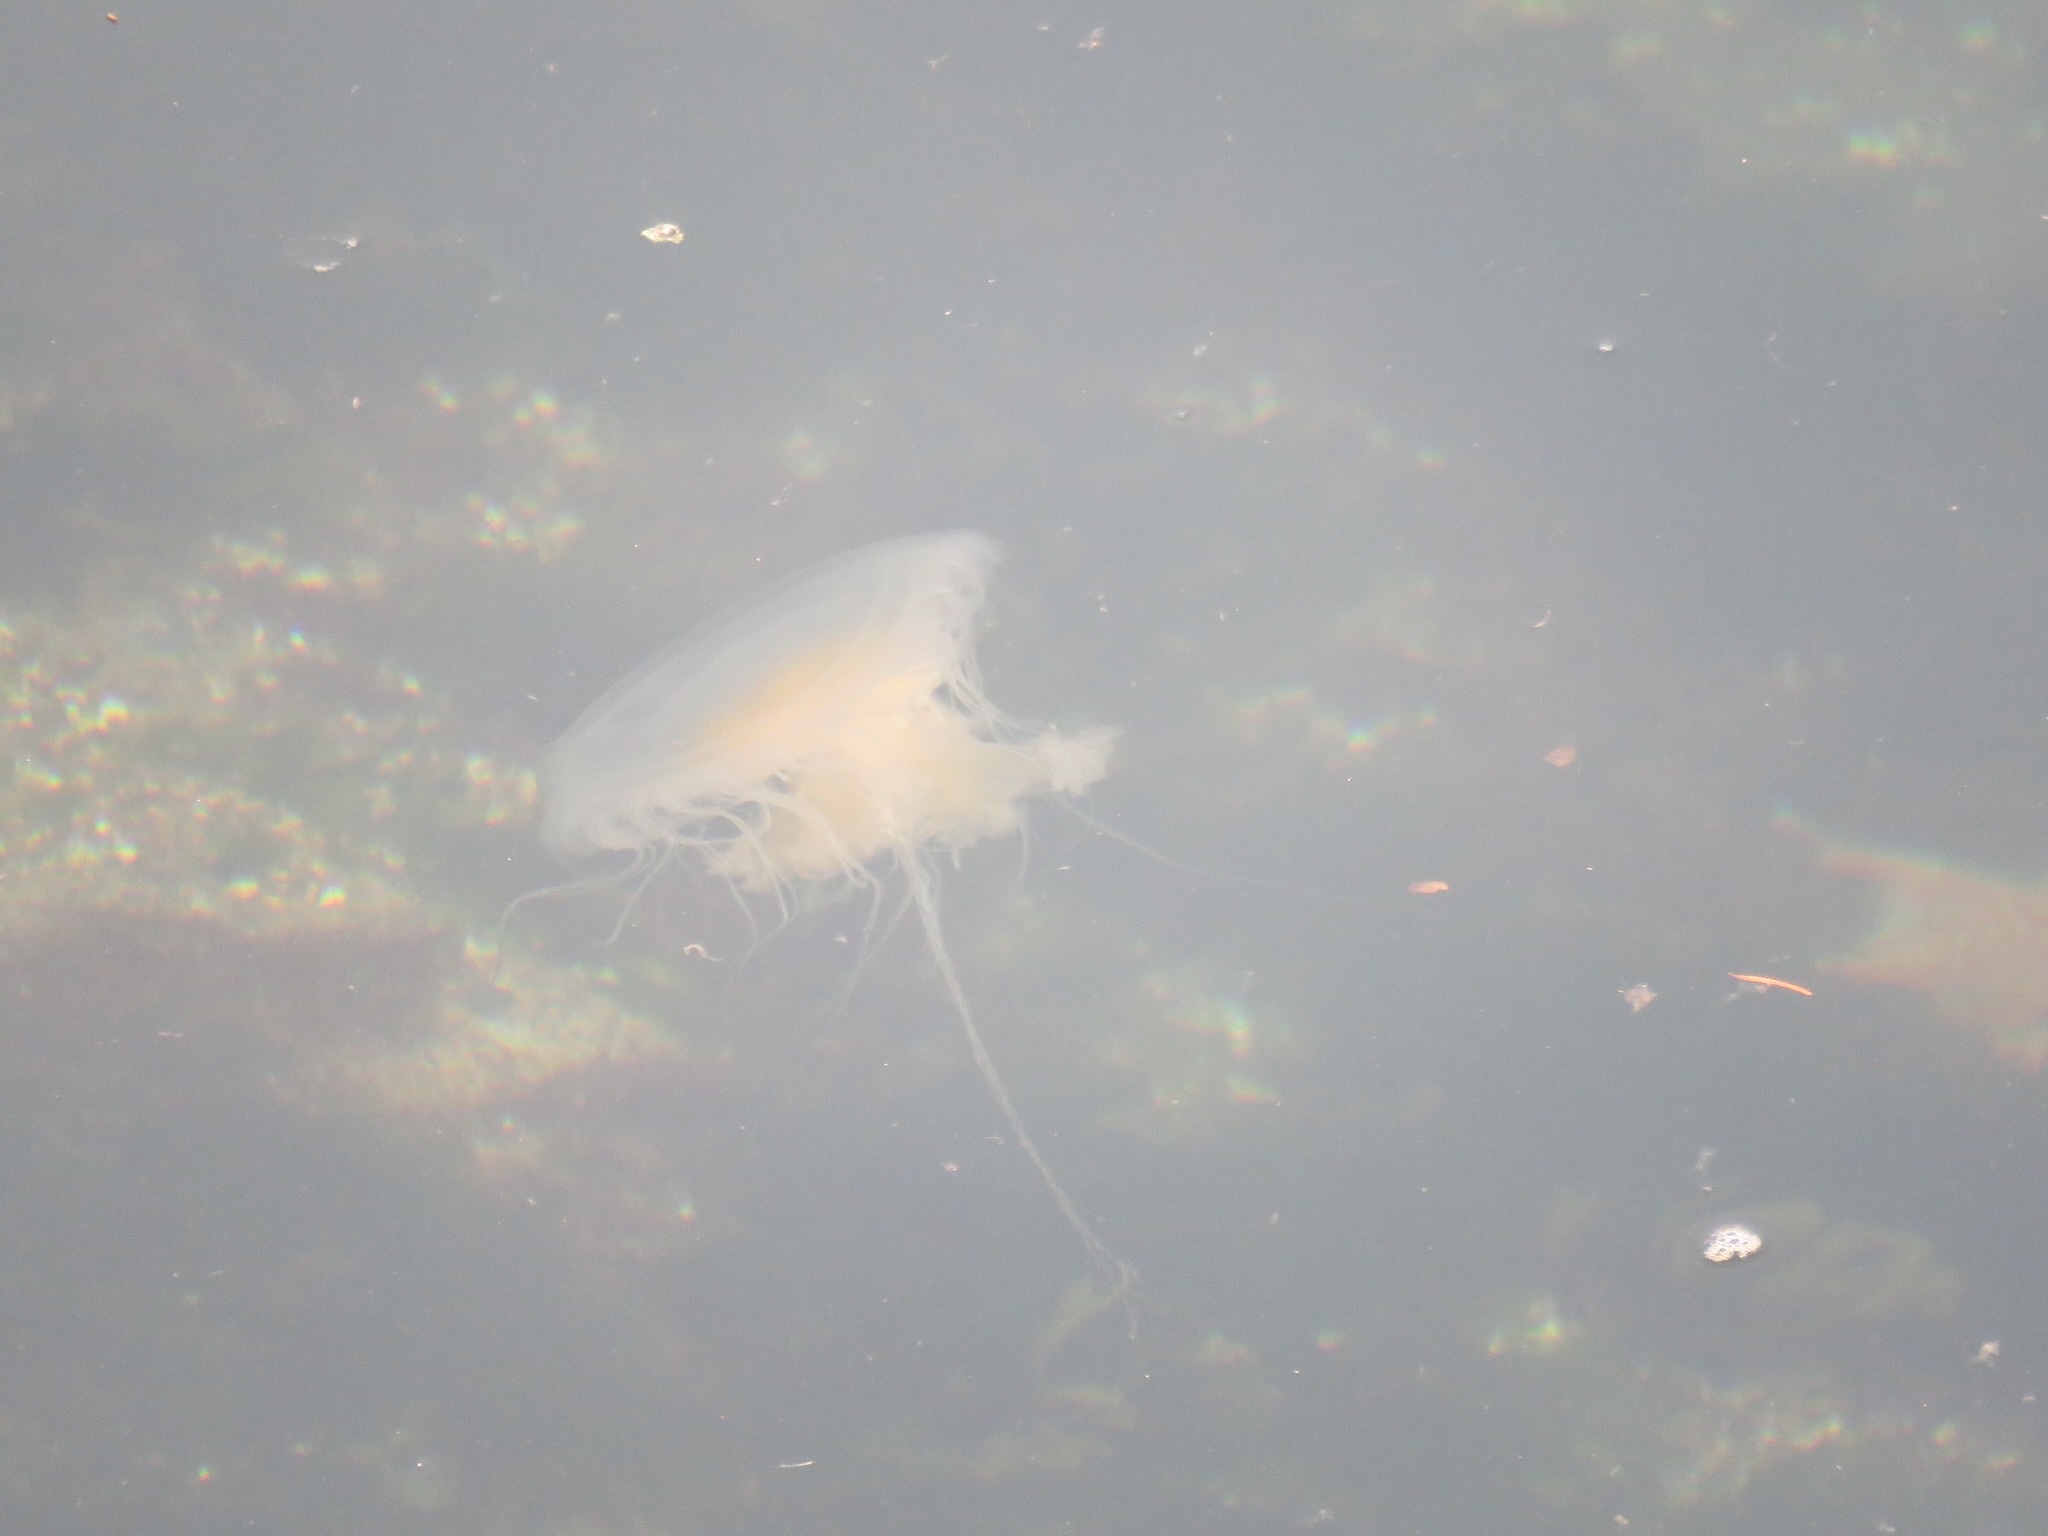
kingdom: Animalia
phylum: Cnidaria
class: Scyphozoa
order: Semaeostomeae
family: Phacellophoridae
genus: Phacellophora
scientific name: Phacellophora camtschatica
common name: Fried-egg jellyfish
